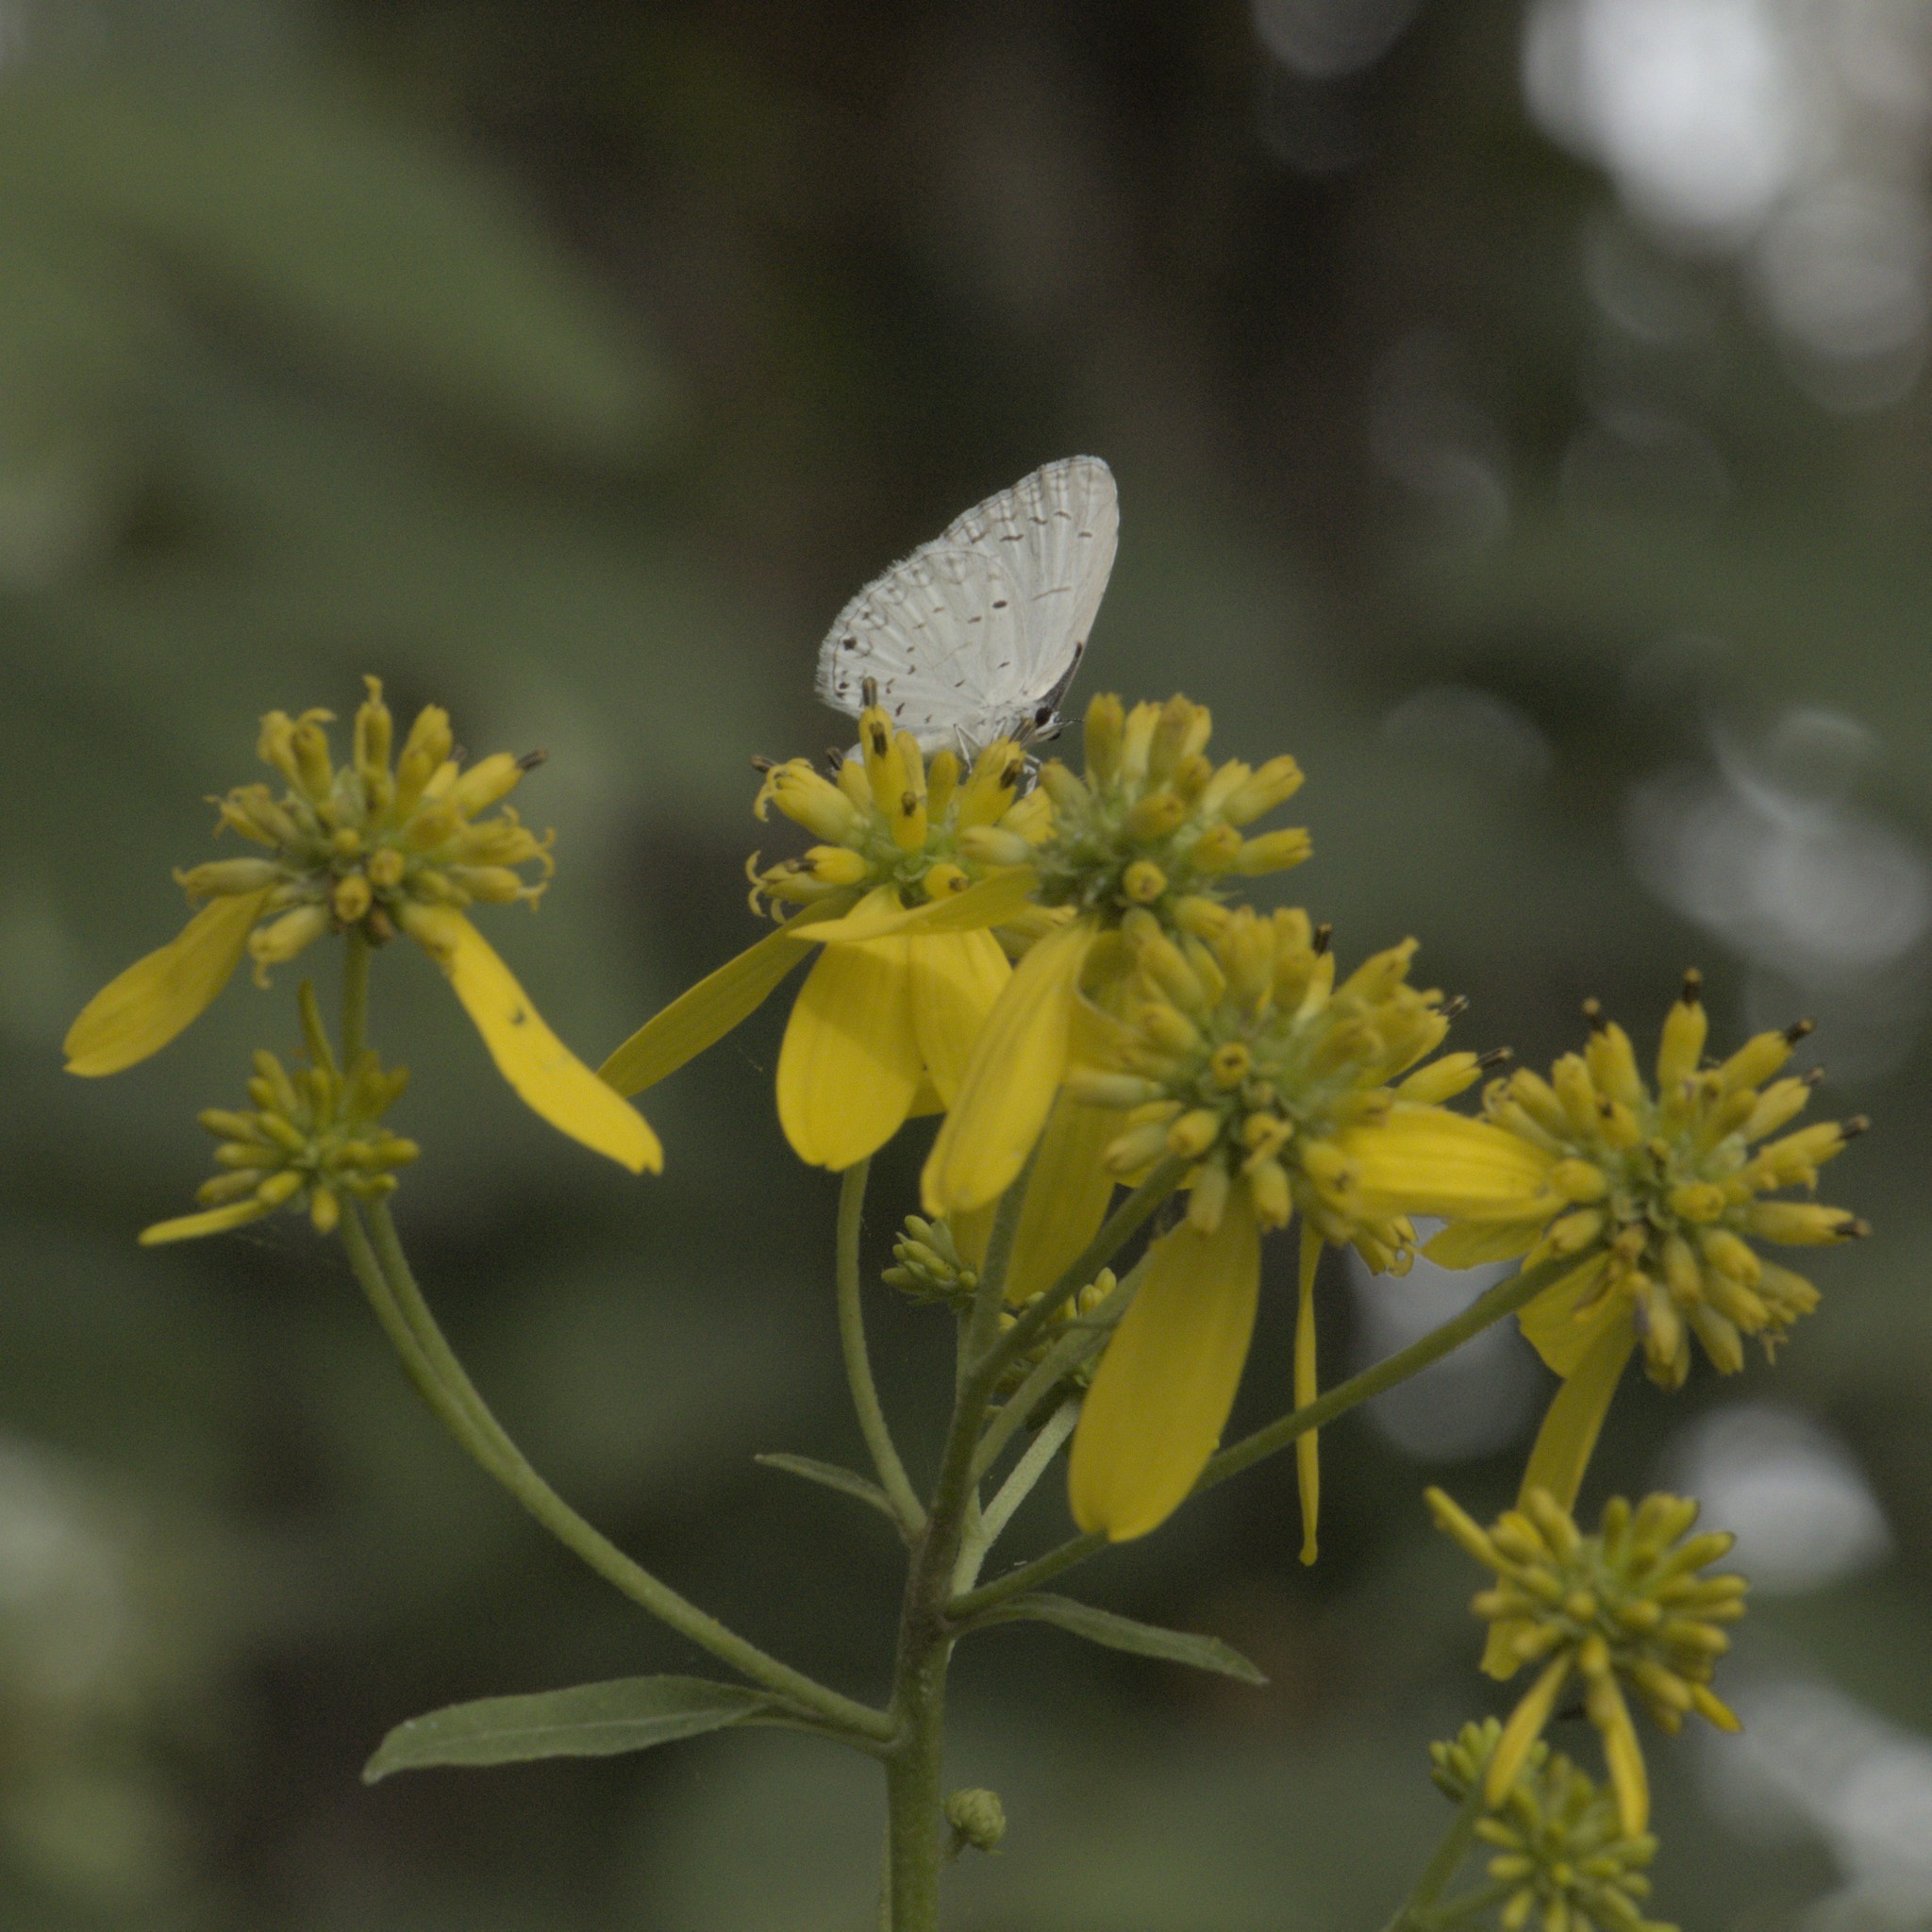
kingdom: Animalia
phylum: Arthropoda
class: Insecta
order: Lepidoptera
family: Lycaenidae
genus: Cyaniris
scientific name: Cyaniris neglecta
